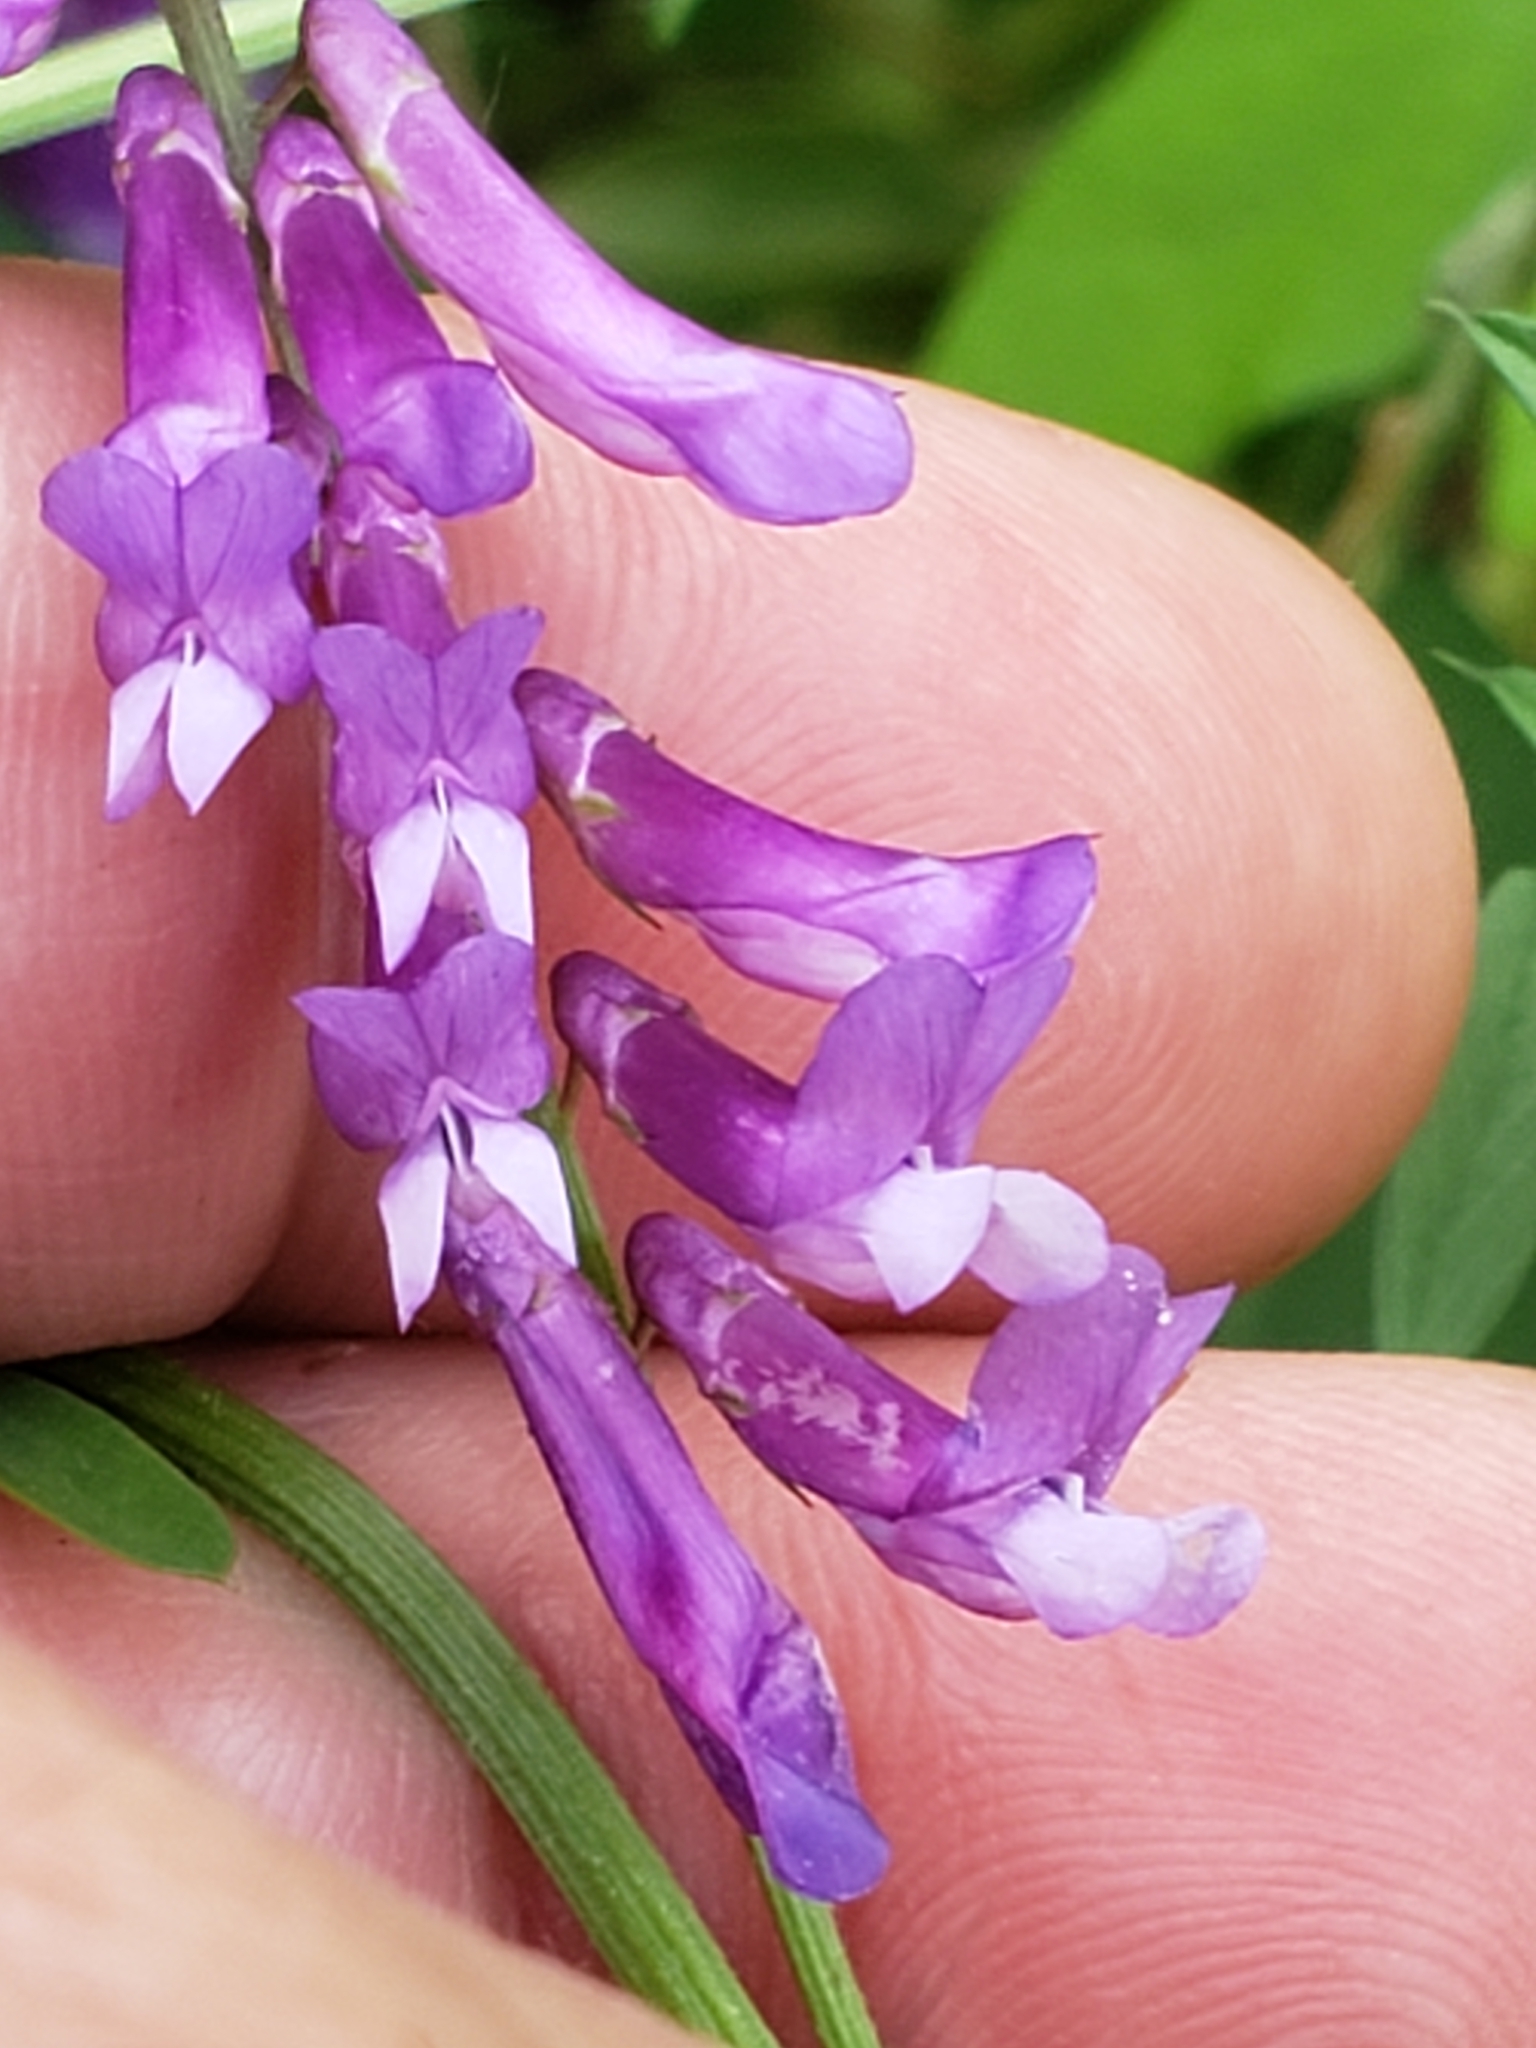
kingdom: Plantae
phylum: Tracheophyta
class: Magnoliopsida
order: Fabales
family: Fabaceae
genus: Vicia
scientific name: Vicia villosa
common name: Fodder vetch
